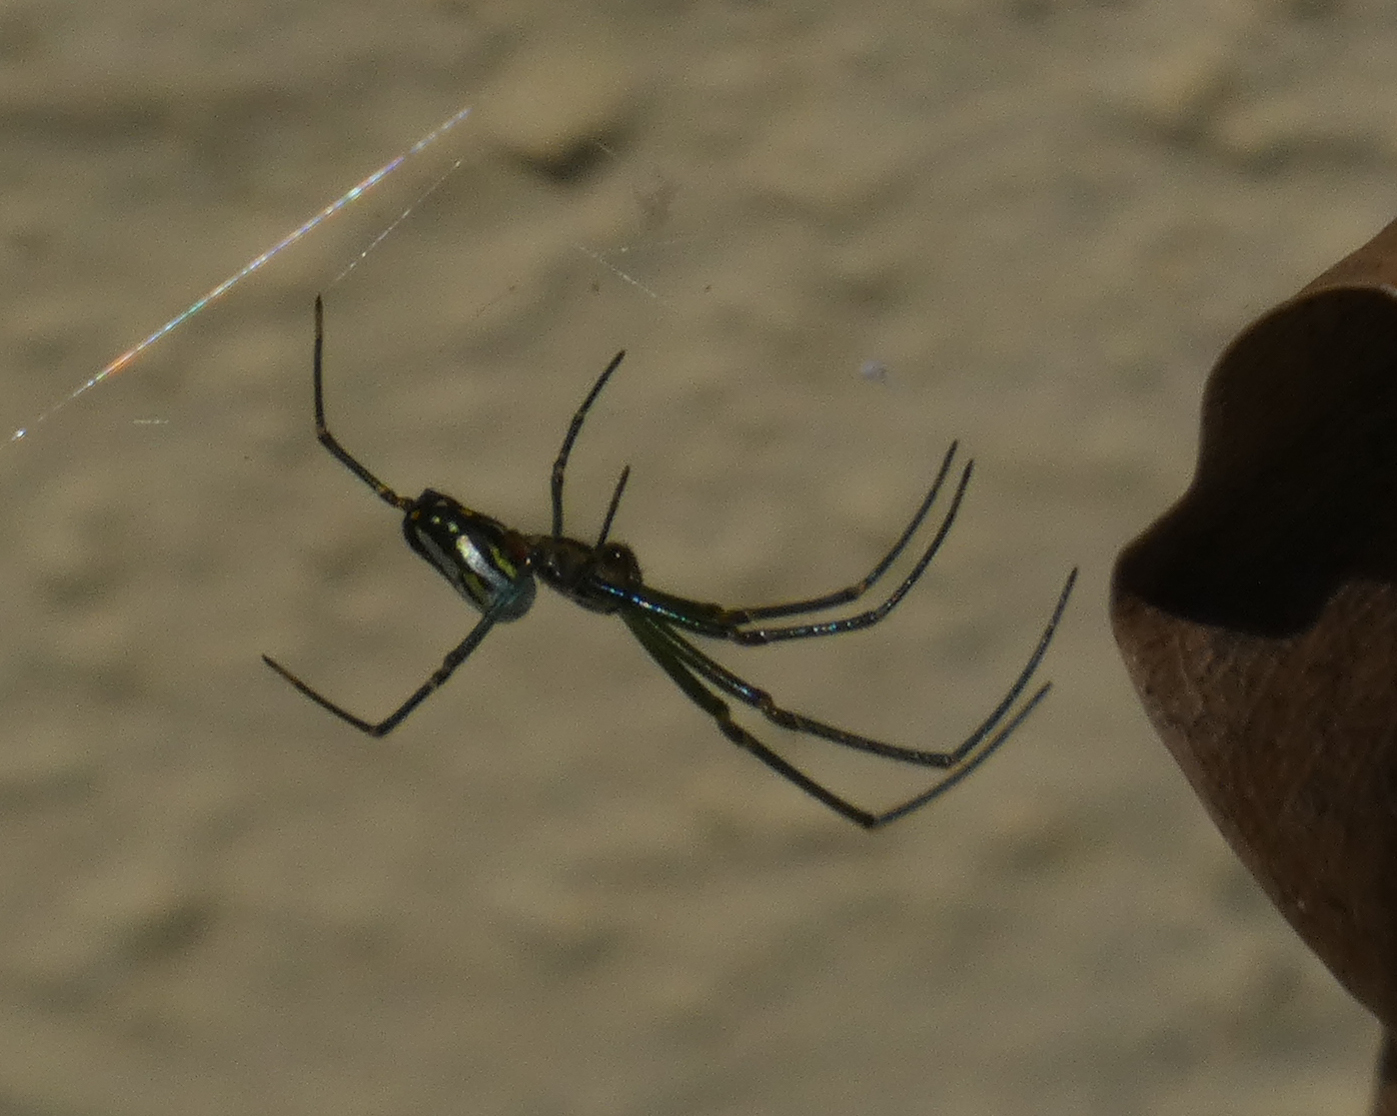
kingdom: Animalia
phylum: Arthropoda
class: Arachnida
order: Araneae
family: Tetragnathidae
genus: Leucauge
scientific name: Leucauge argyra
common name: Longjawed orb weavers
